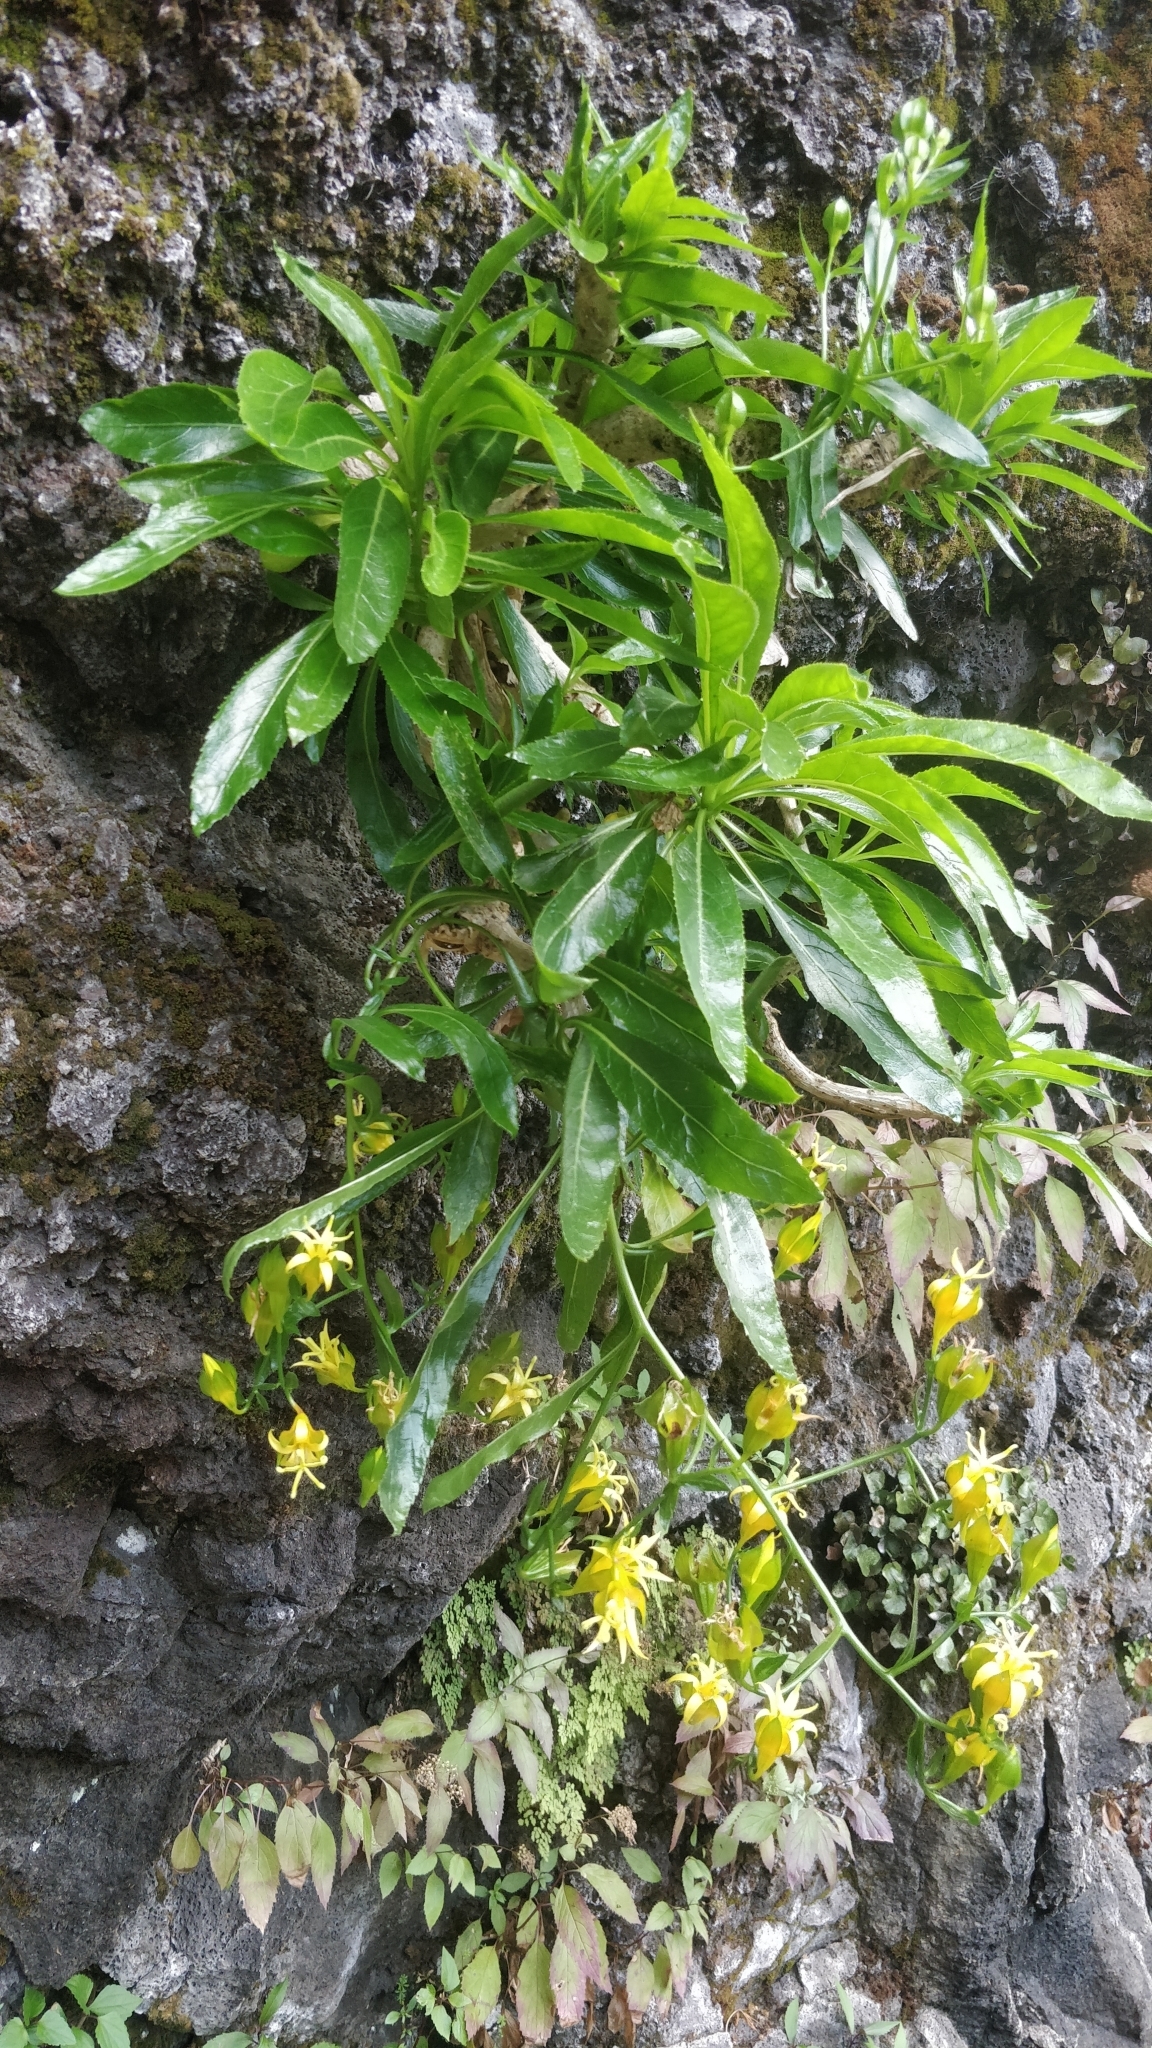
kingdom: Plantae
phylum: Tracheophyta
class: Magnoliopsida
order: Asterales
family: Campanulaceae
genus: Musschia
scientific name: Musschia aurea
